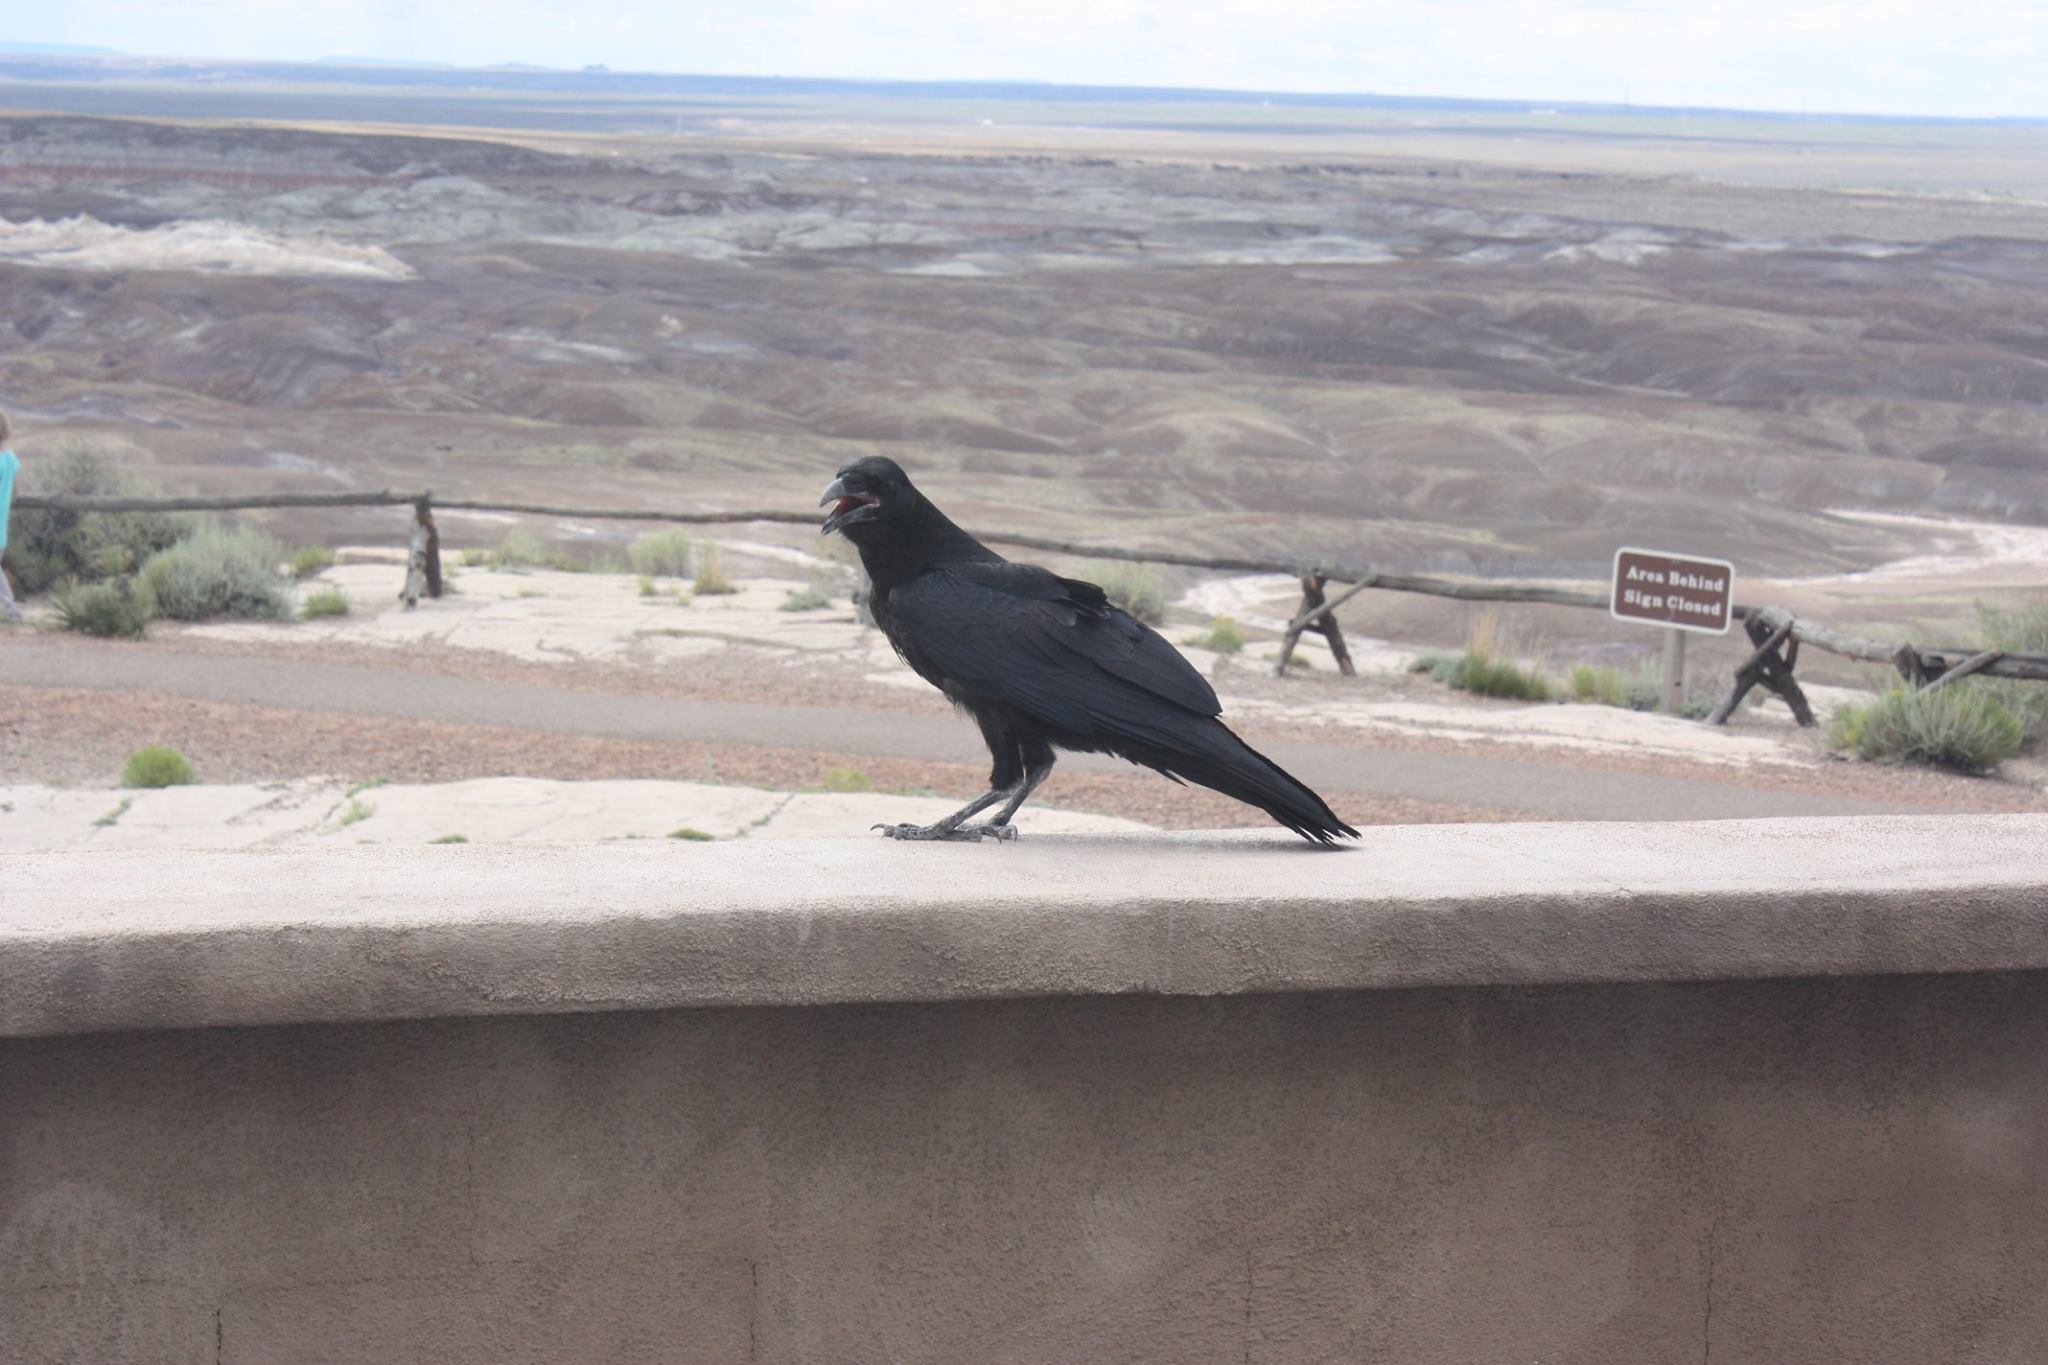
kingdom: Animalia
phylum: Chordata
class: Aves
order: Passeriformes
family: Corvidae
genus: Corvus
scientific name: Corvus corax
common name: Common raven
